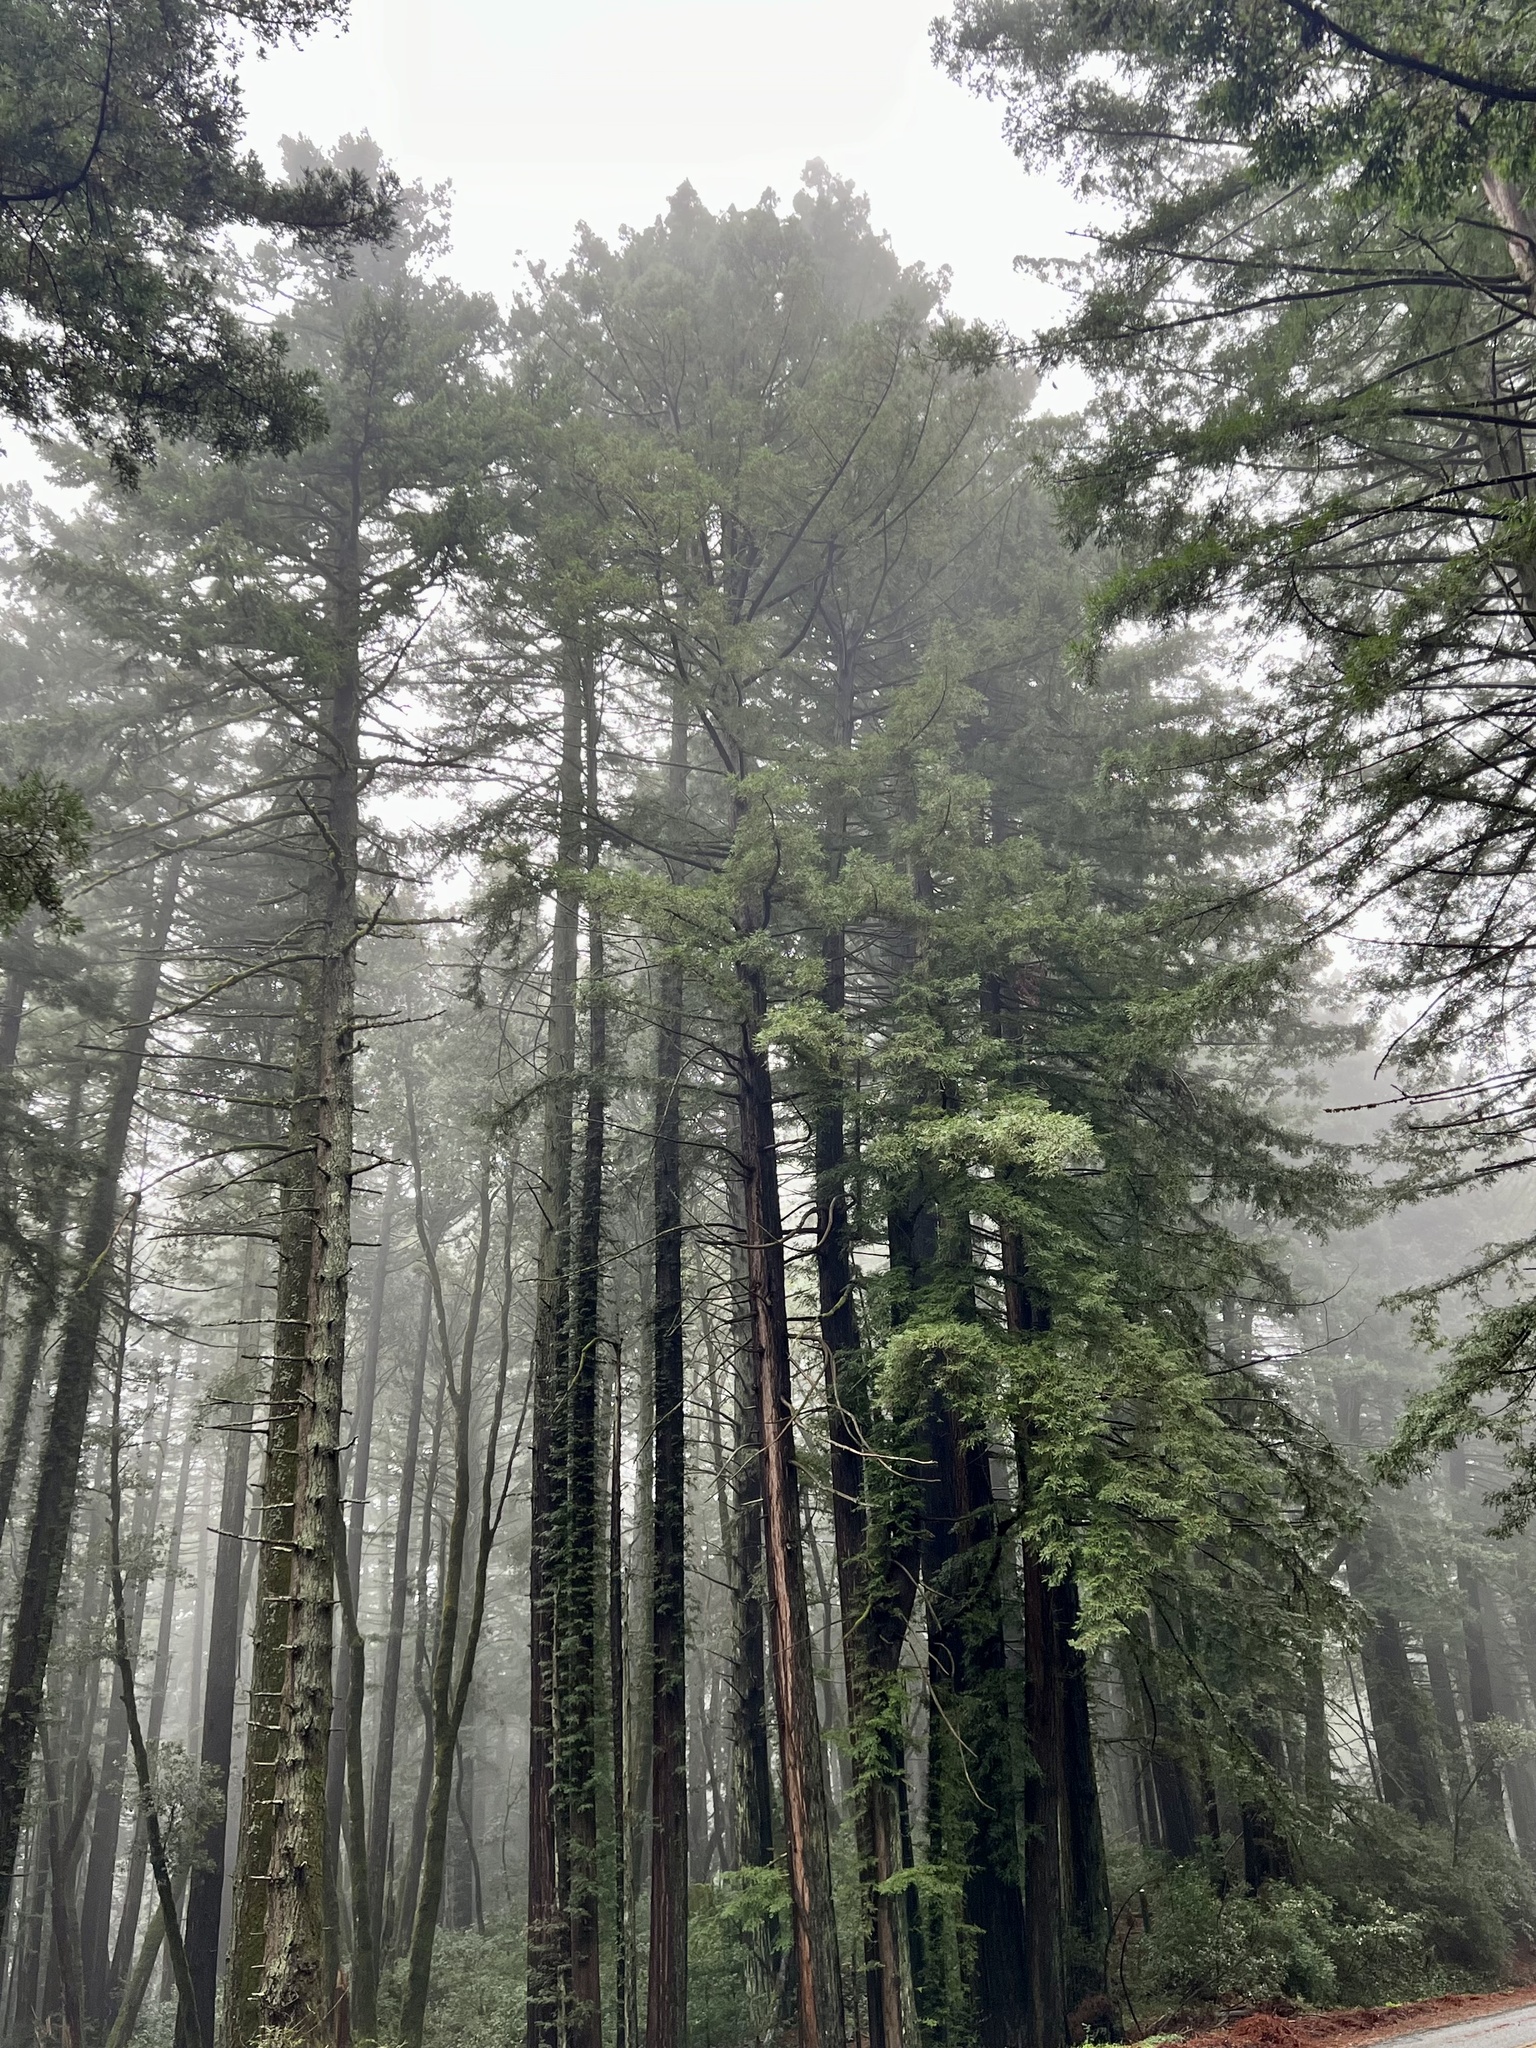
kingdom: Plantae
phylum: Tracheophyta
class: Pinopsida
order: Pinales
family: Cupressaceae
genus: Sequoia
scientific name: Sequoia sempervirens
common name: Coast redwood
